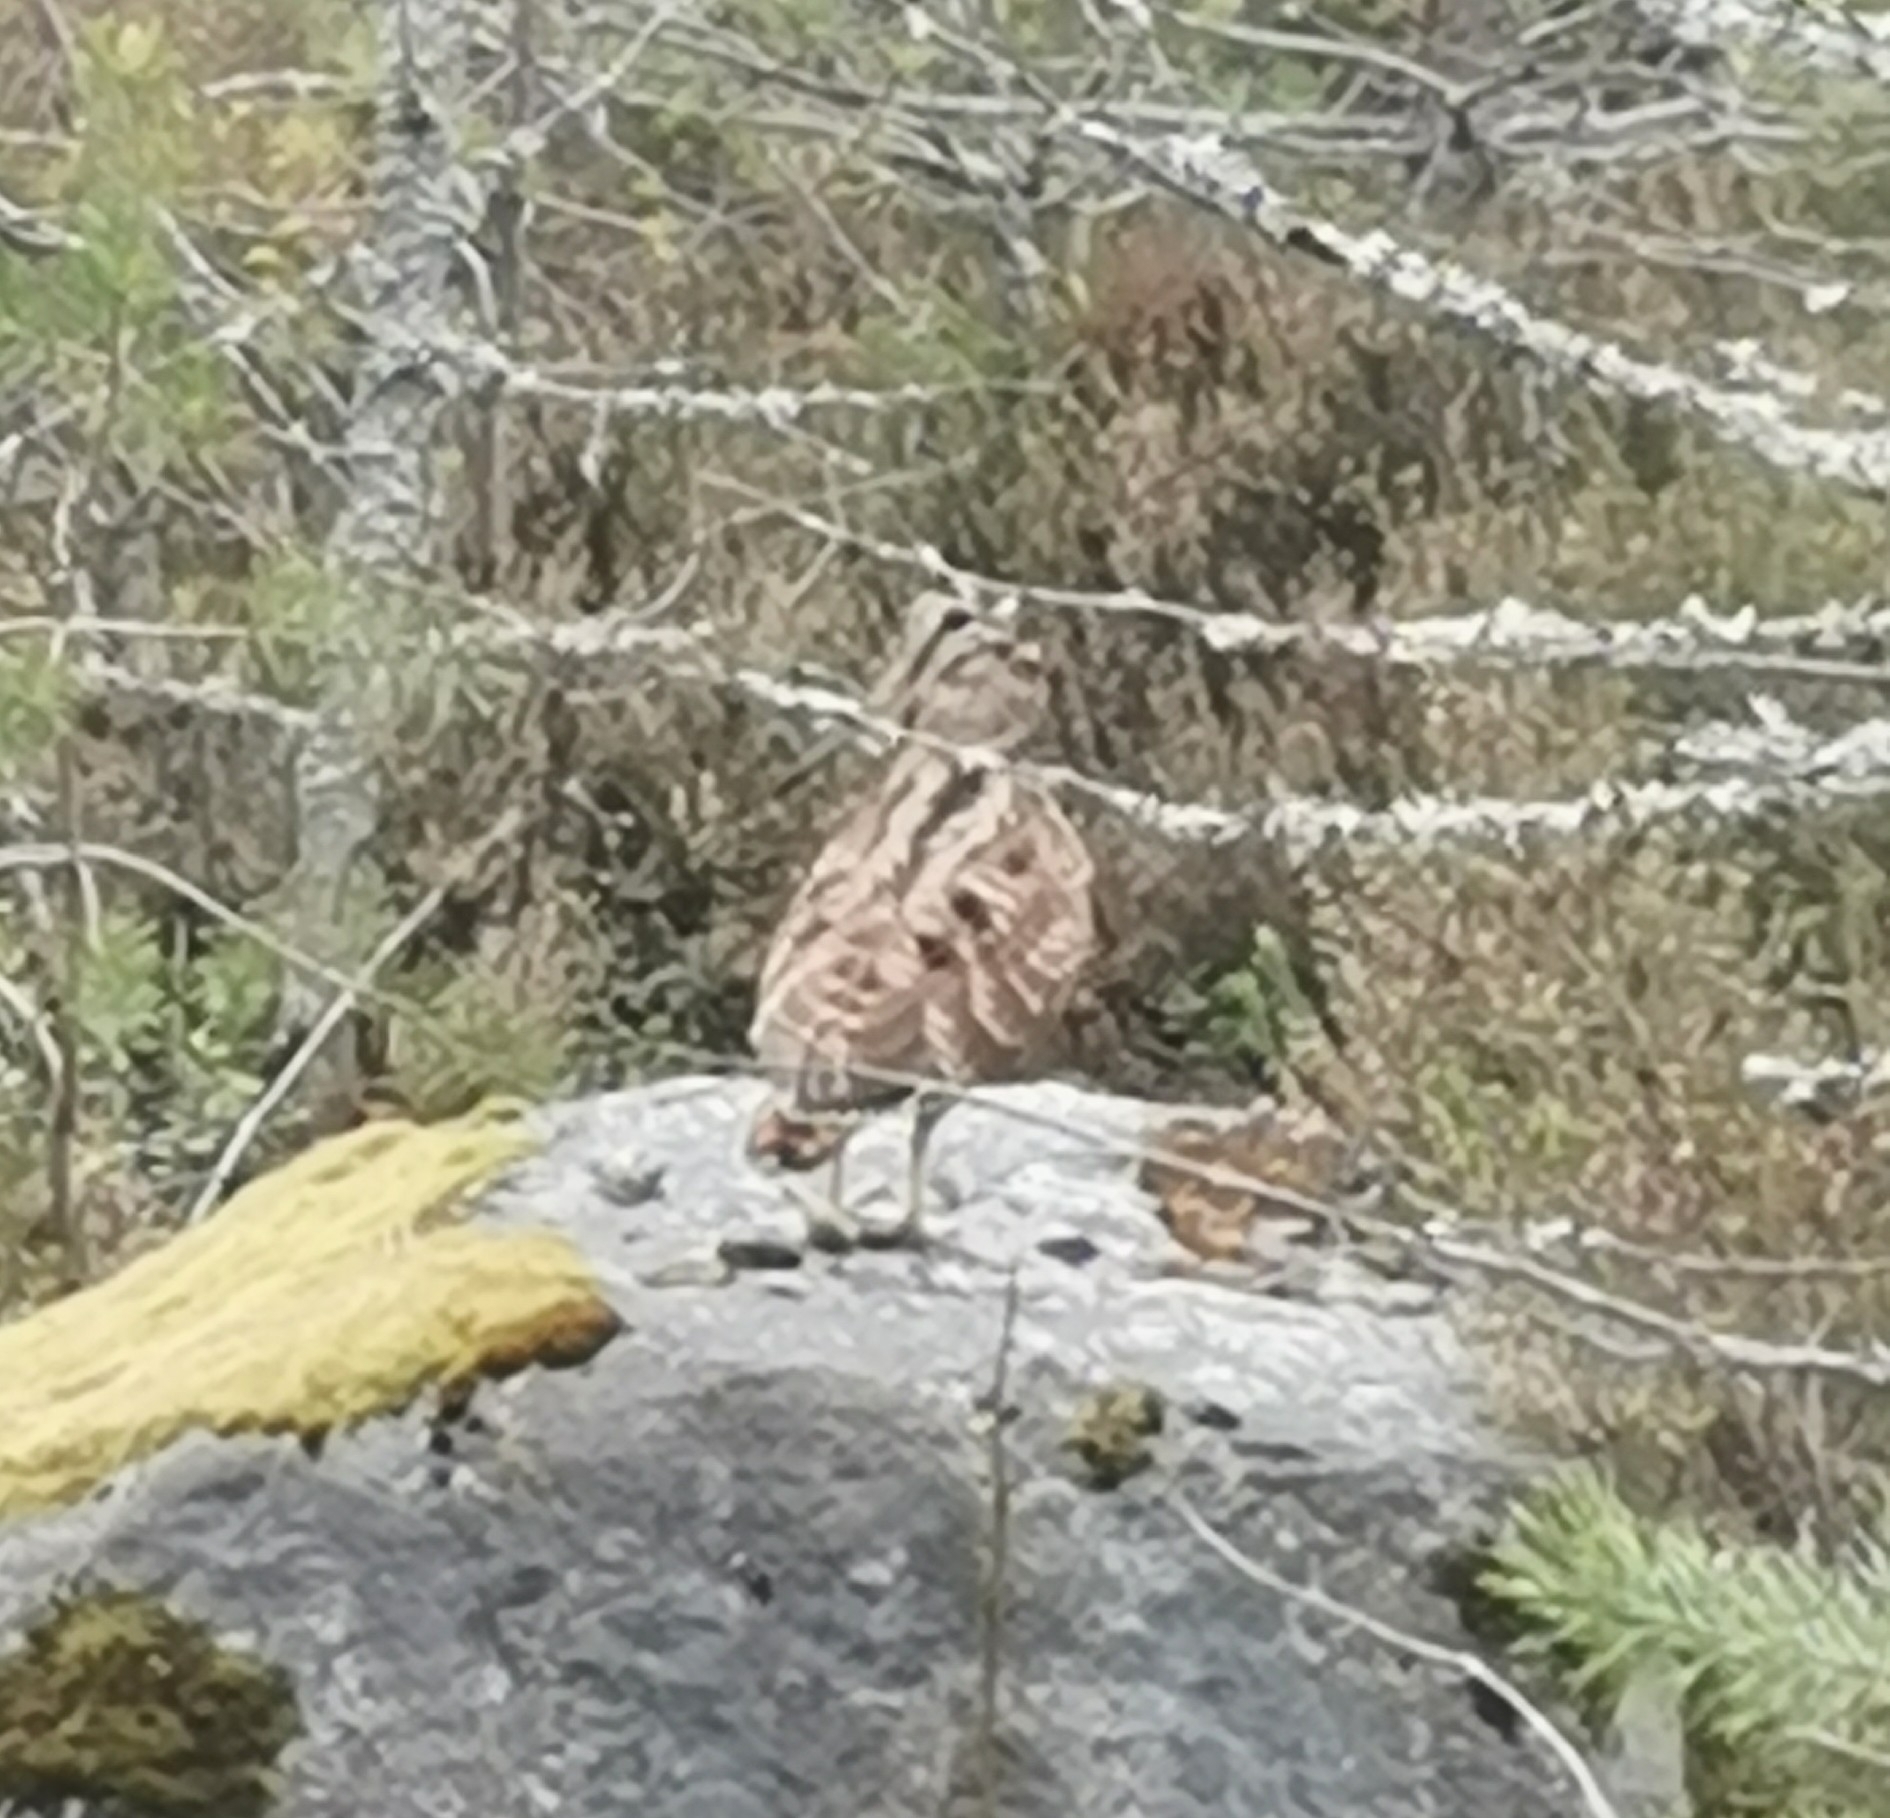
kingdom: Animalia
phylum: Chordata
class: Aves
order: Charadriiformes
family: Scolopacidae
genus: Scolopax
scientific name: Scolopax rusticola
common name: Eurasian woodcock
